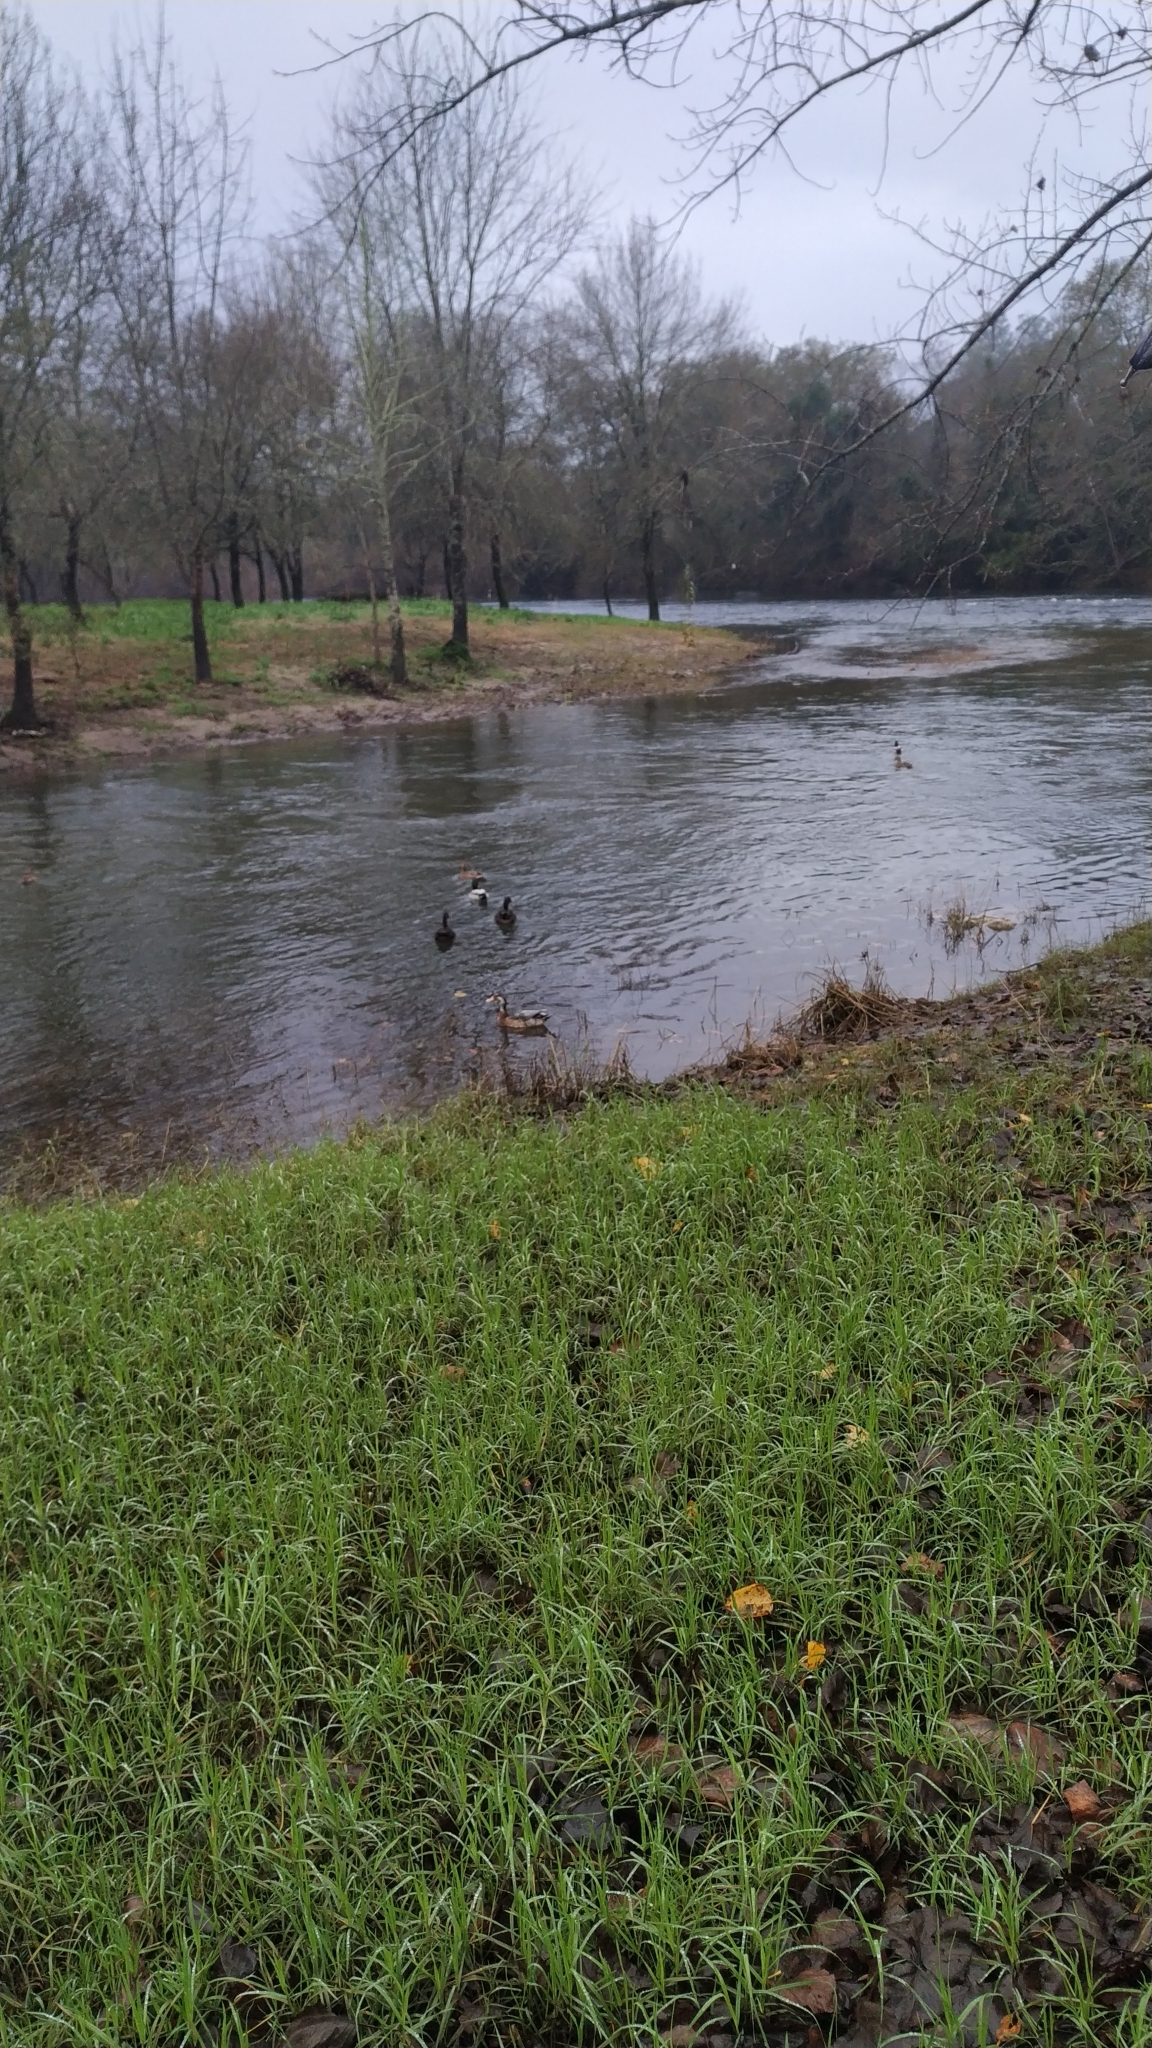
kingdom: Animalia
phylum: Chordata
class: Aves
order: Anseriformes
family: Anatidae
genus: Anas
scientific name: Anas platyrhynchos
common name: Mallard
